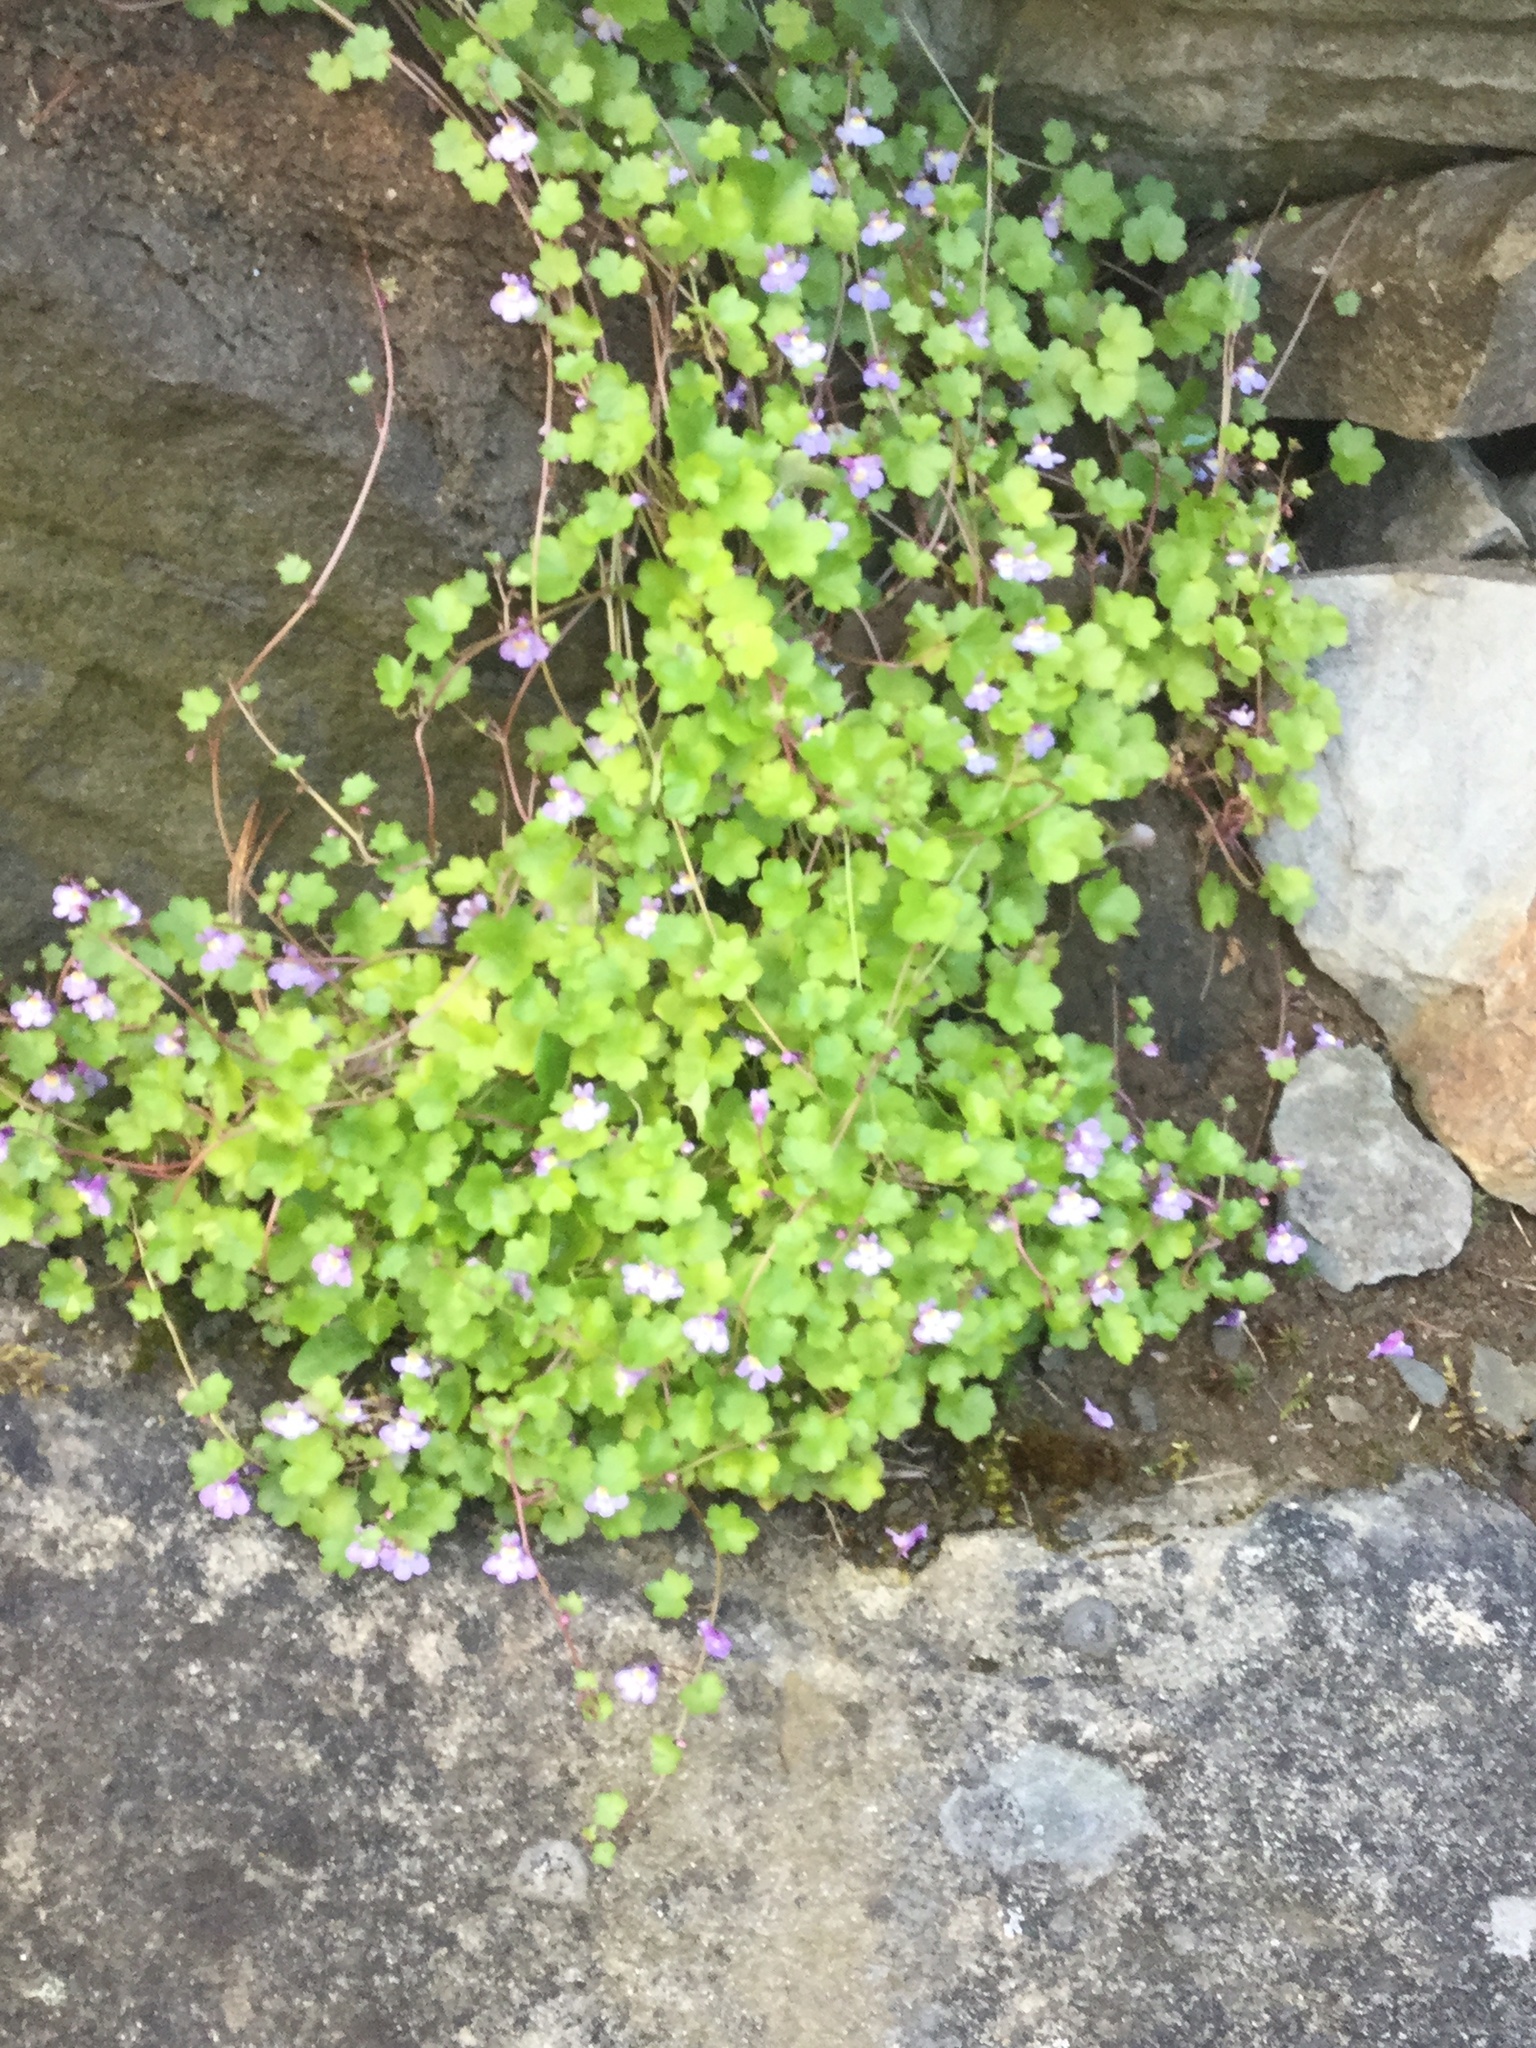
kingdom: Plantae
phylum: Tracheophyta
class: Magnoliopsida
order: Lamiales
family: Plantaginaceae
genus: Cymbalaria
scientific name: Cymbalaria muralis
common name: Ivy-leaved toadflax
